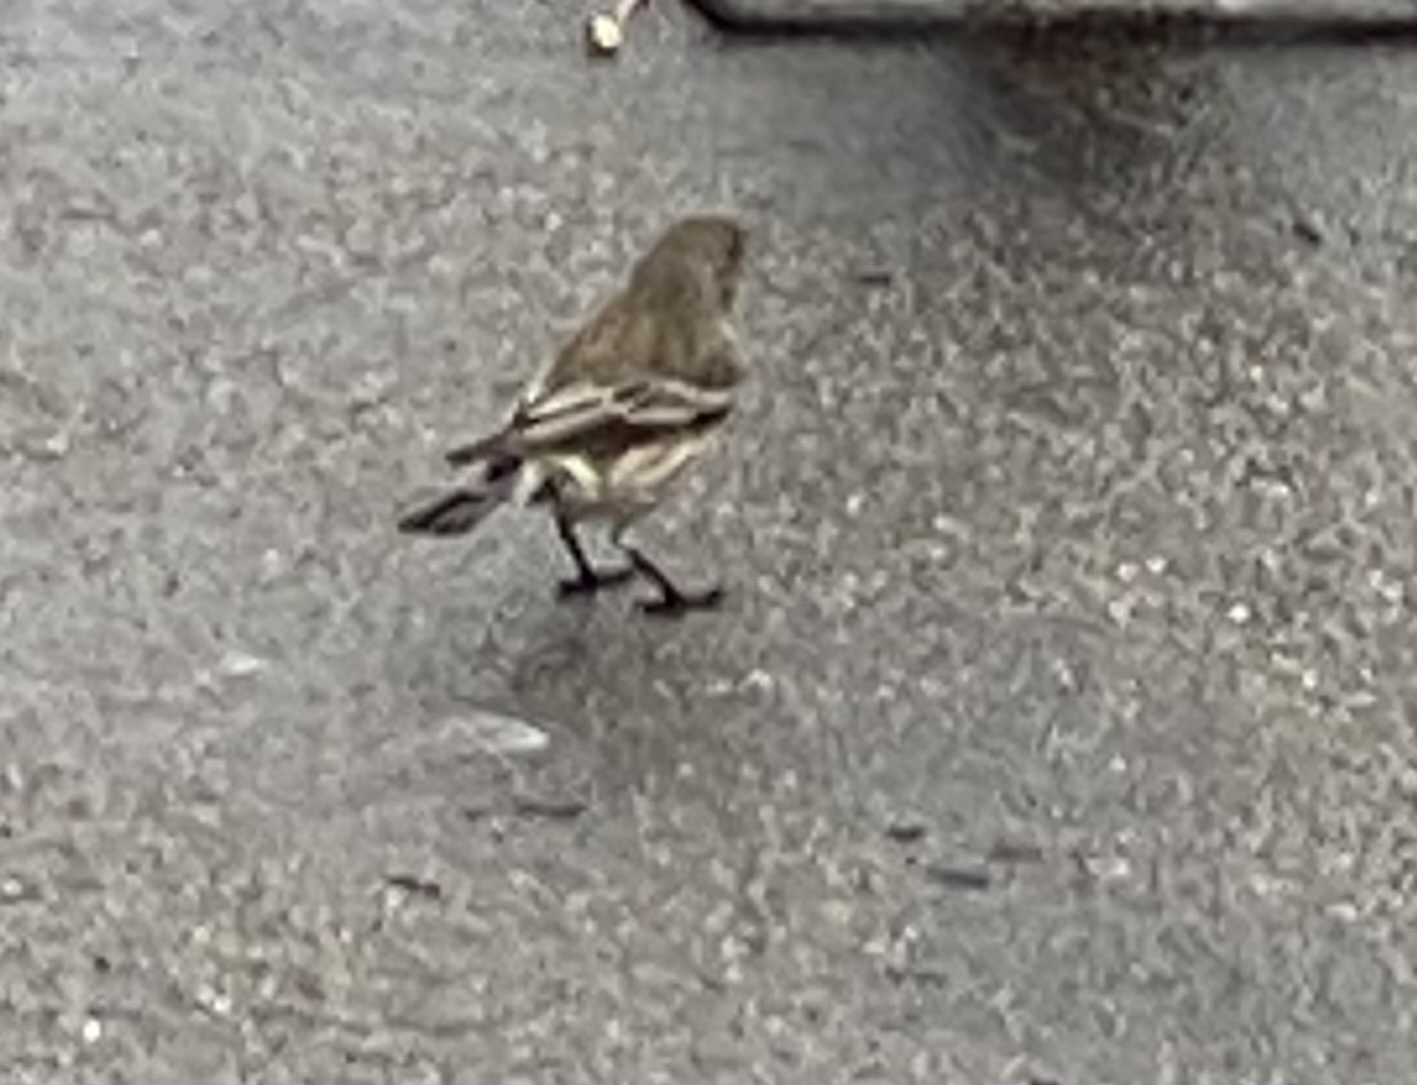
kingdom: Animalia
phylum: Chordata
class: Aves
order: Passeriformes
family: Parulidae
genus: Setophaga
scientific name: Setophaga coronata
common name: Myrtle warbler
